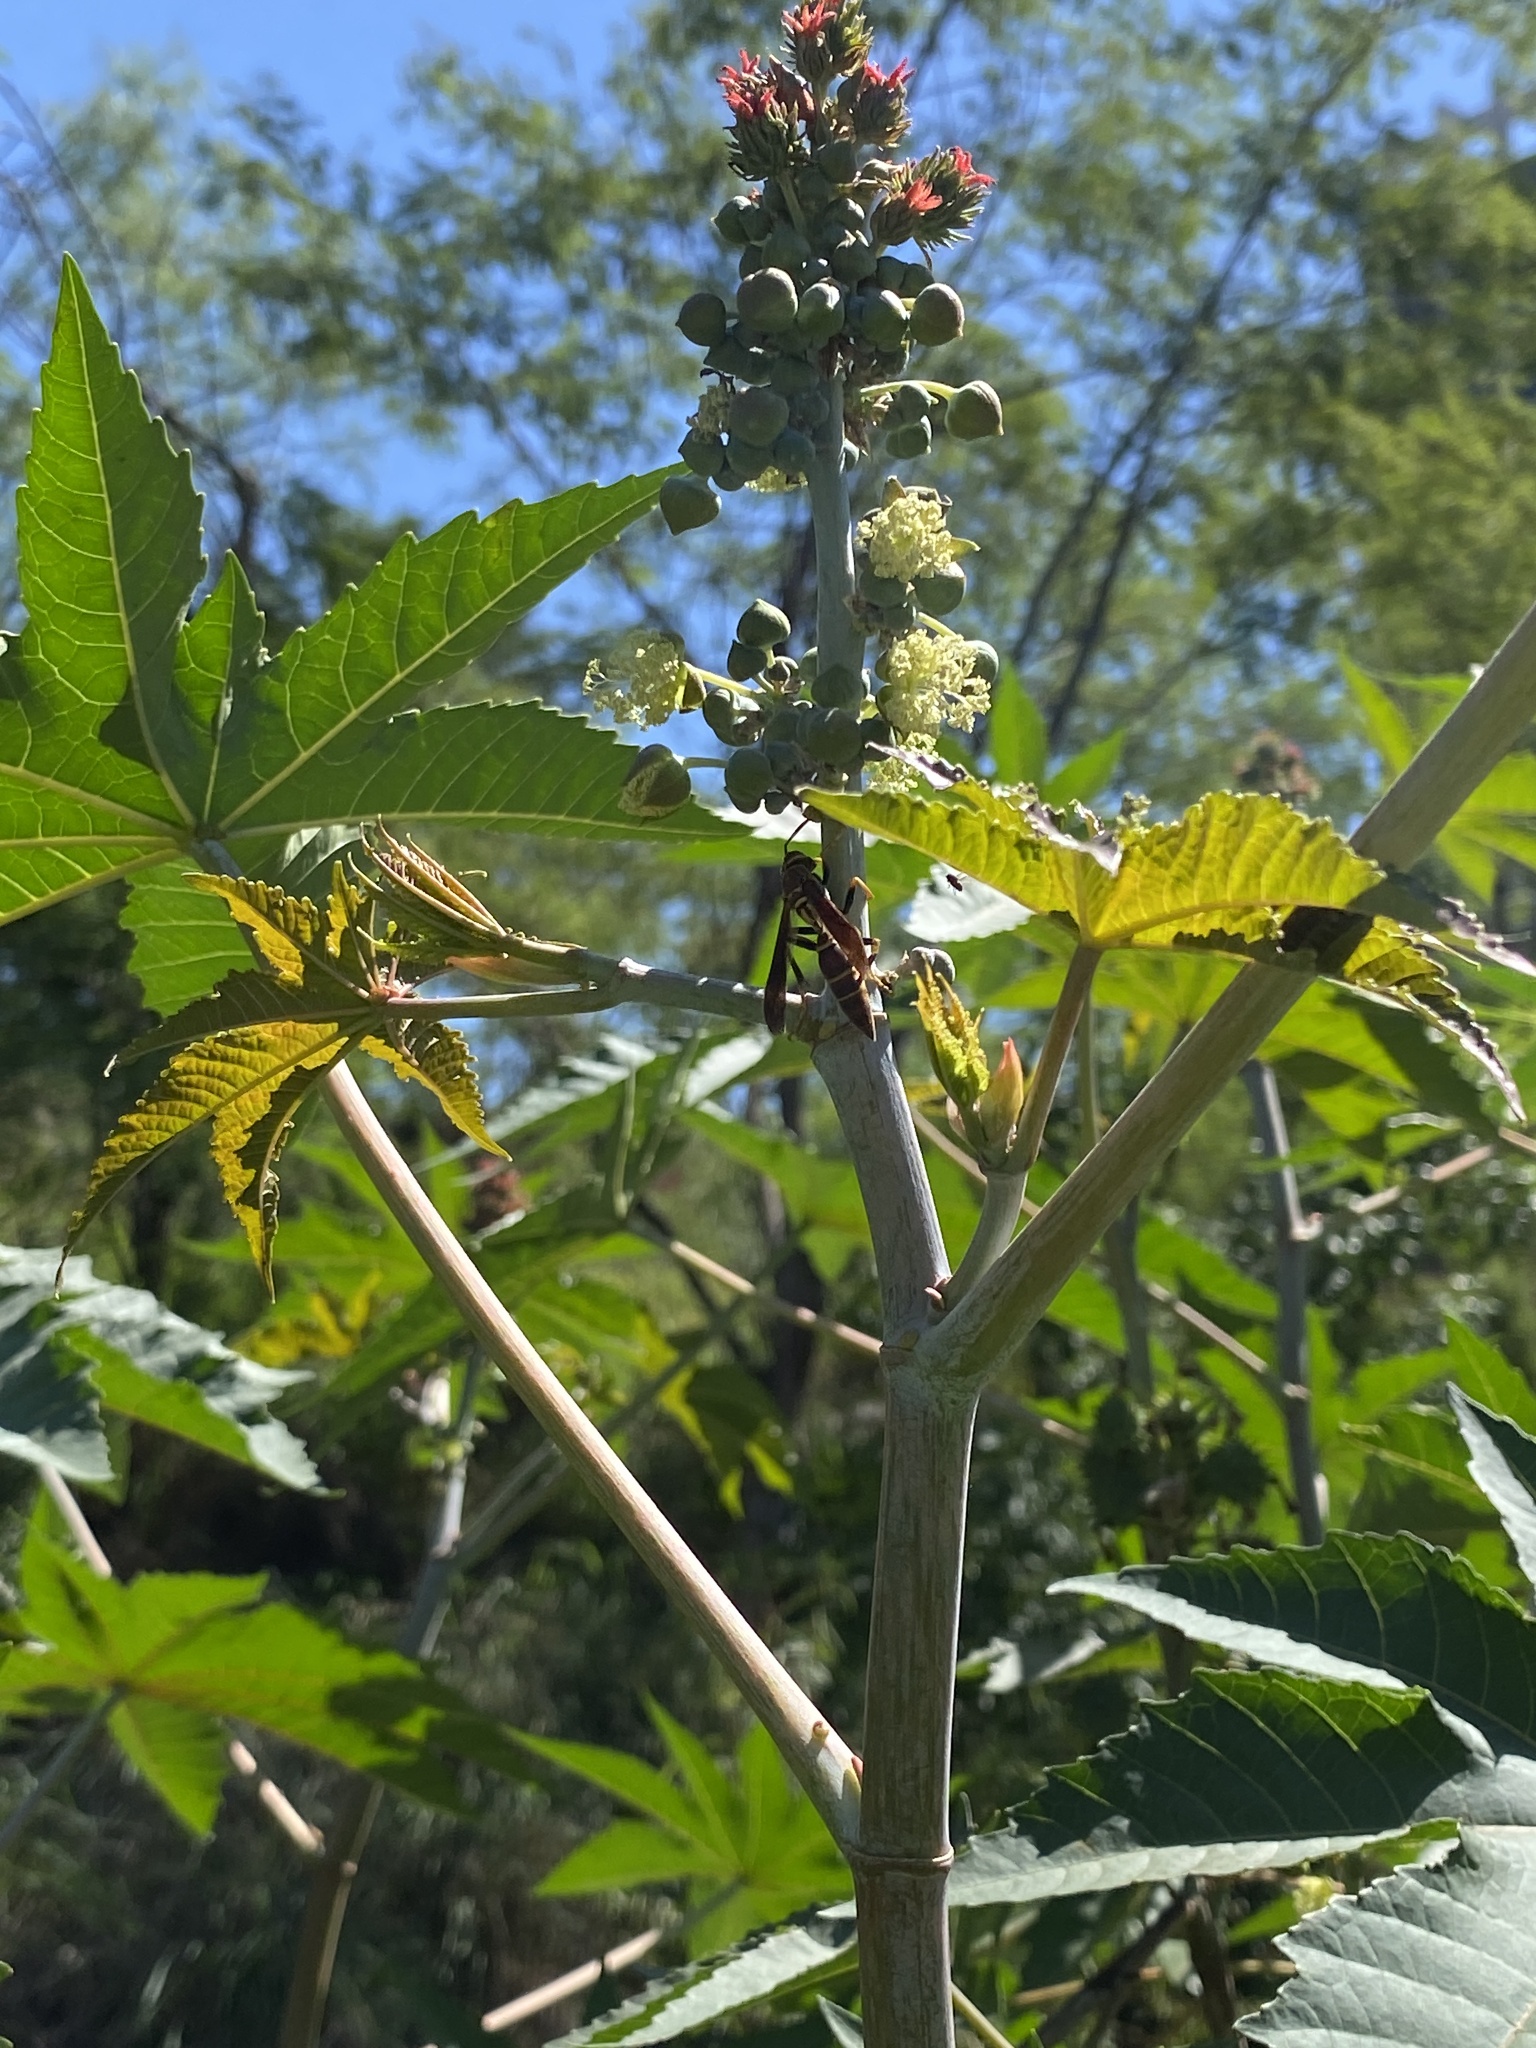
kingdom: Plantae
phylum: Tracheophyta
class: Magnoliopsida
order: Malpighiales
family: Euphorbiaceae
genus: Ricinus
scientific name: Ricinus communis
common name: Castor-oil-plant
